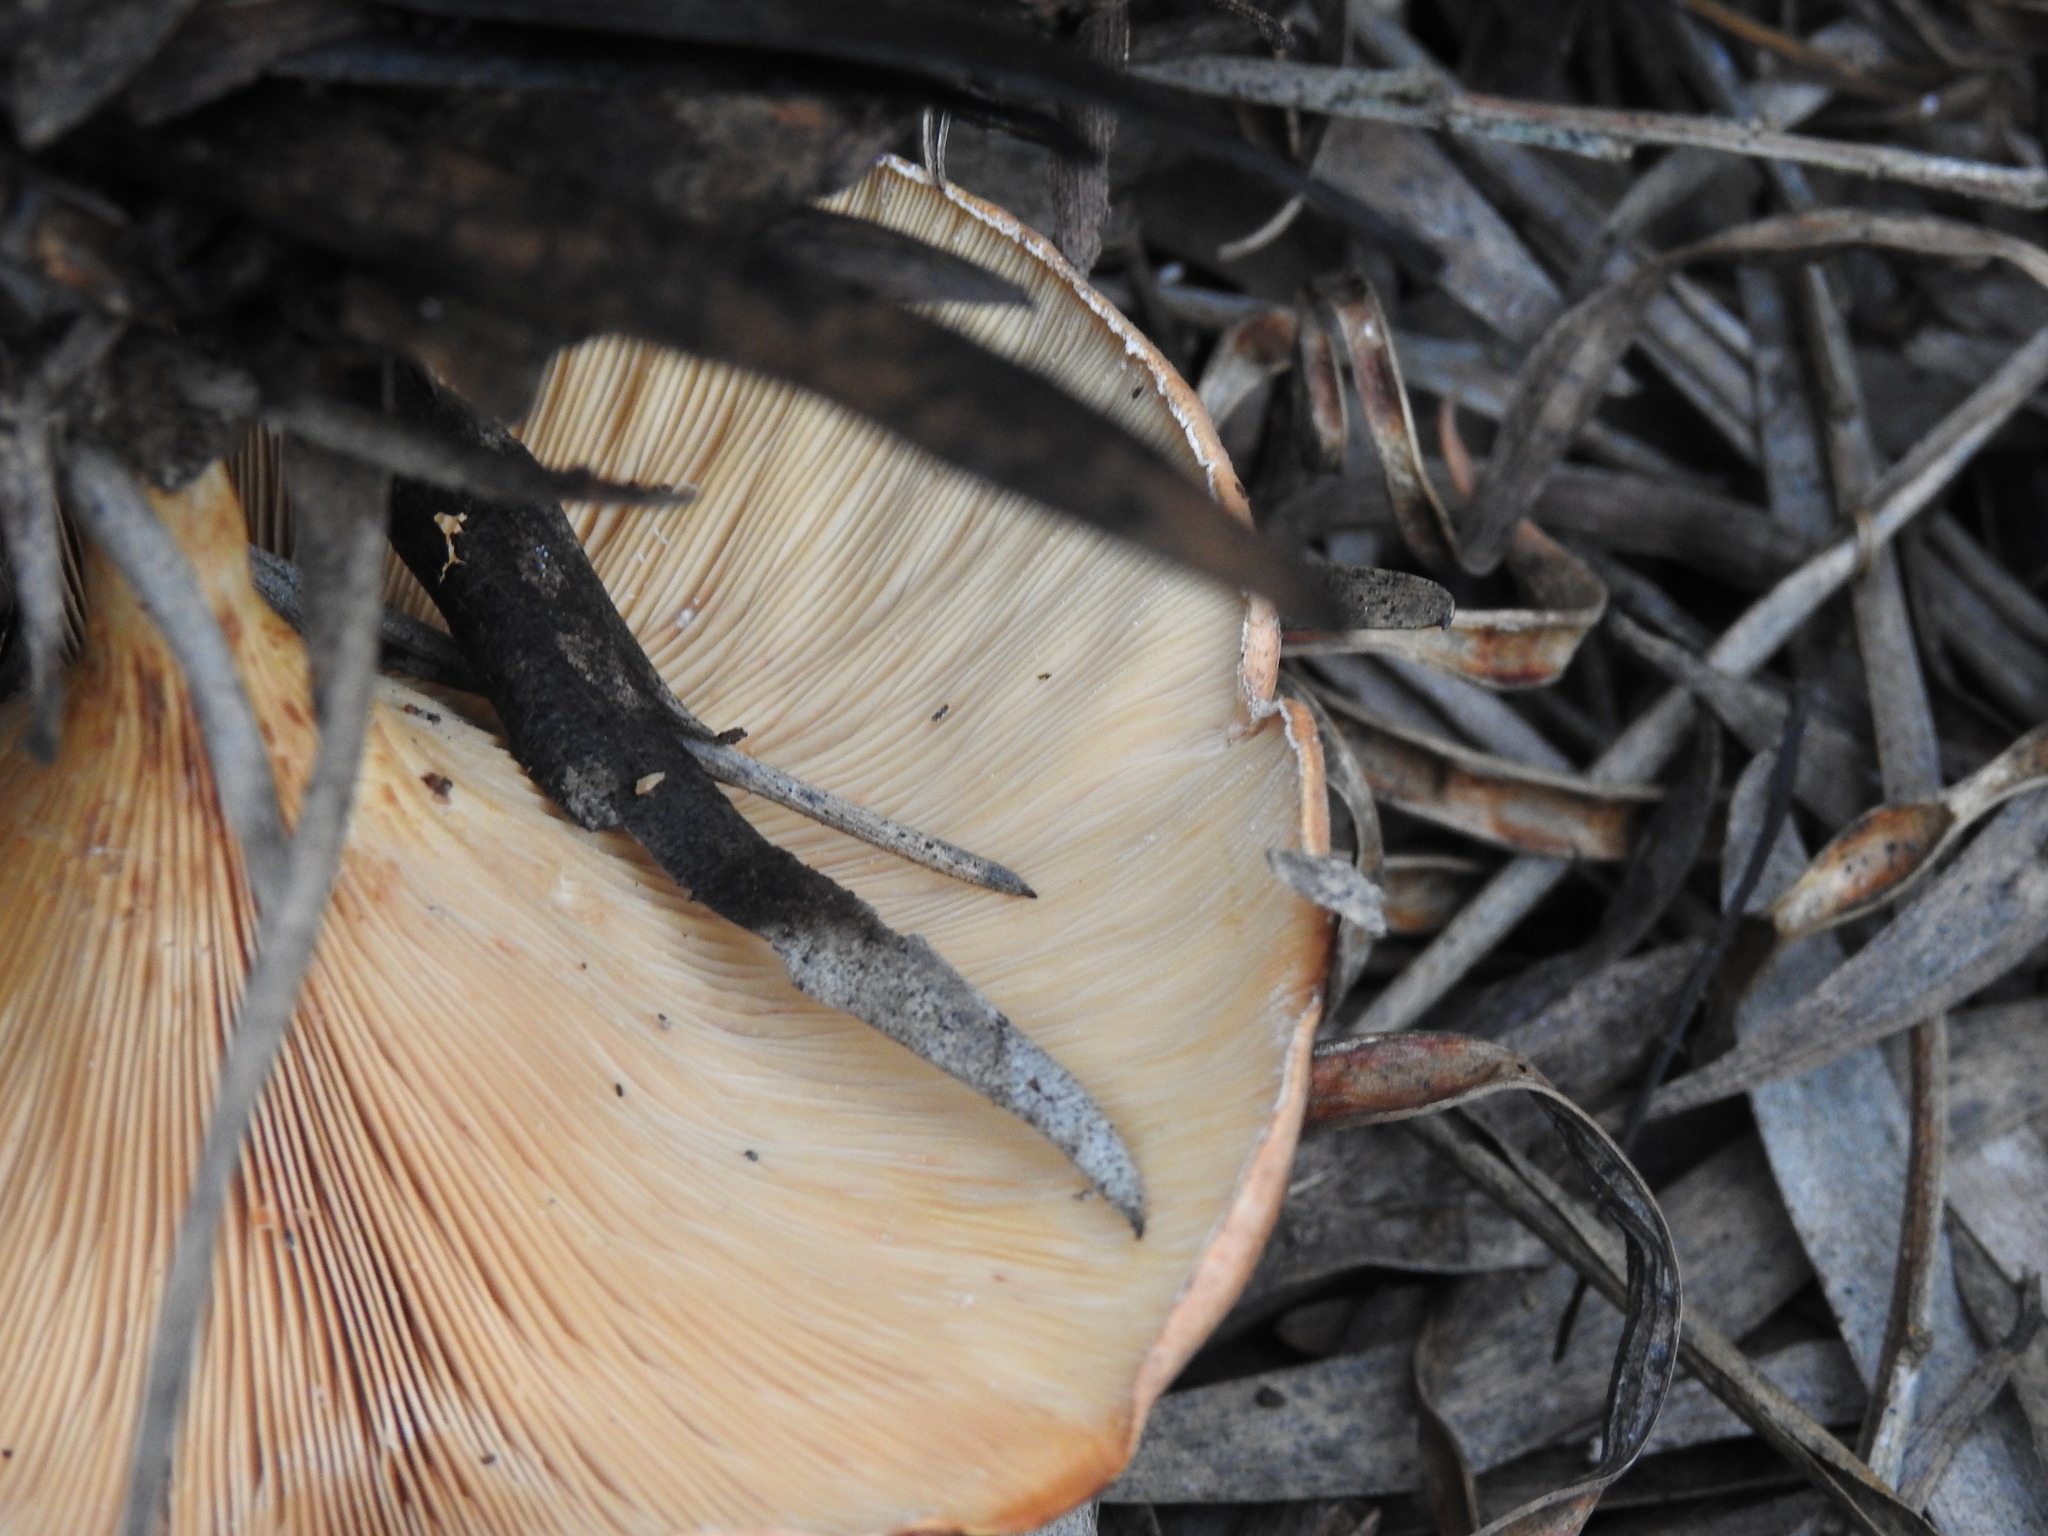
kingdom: Fungi
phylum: Basidiomycota
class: Agaricomycetes
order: Agaricales
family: Tricholomataceae
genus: Paralepista
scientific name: Paralepista flaccida
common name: Tawny funnel cap
